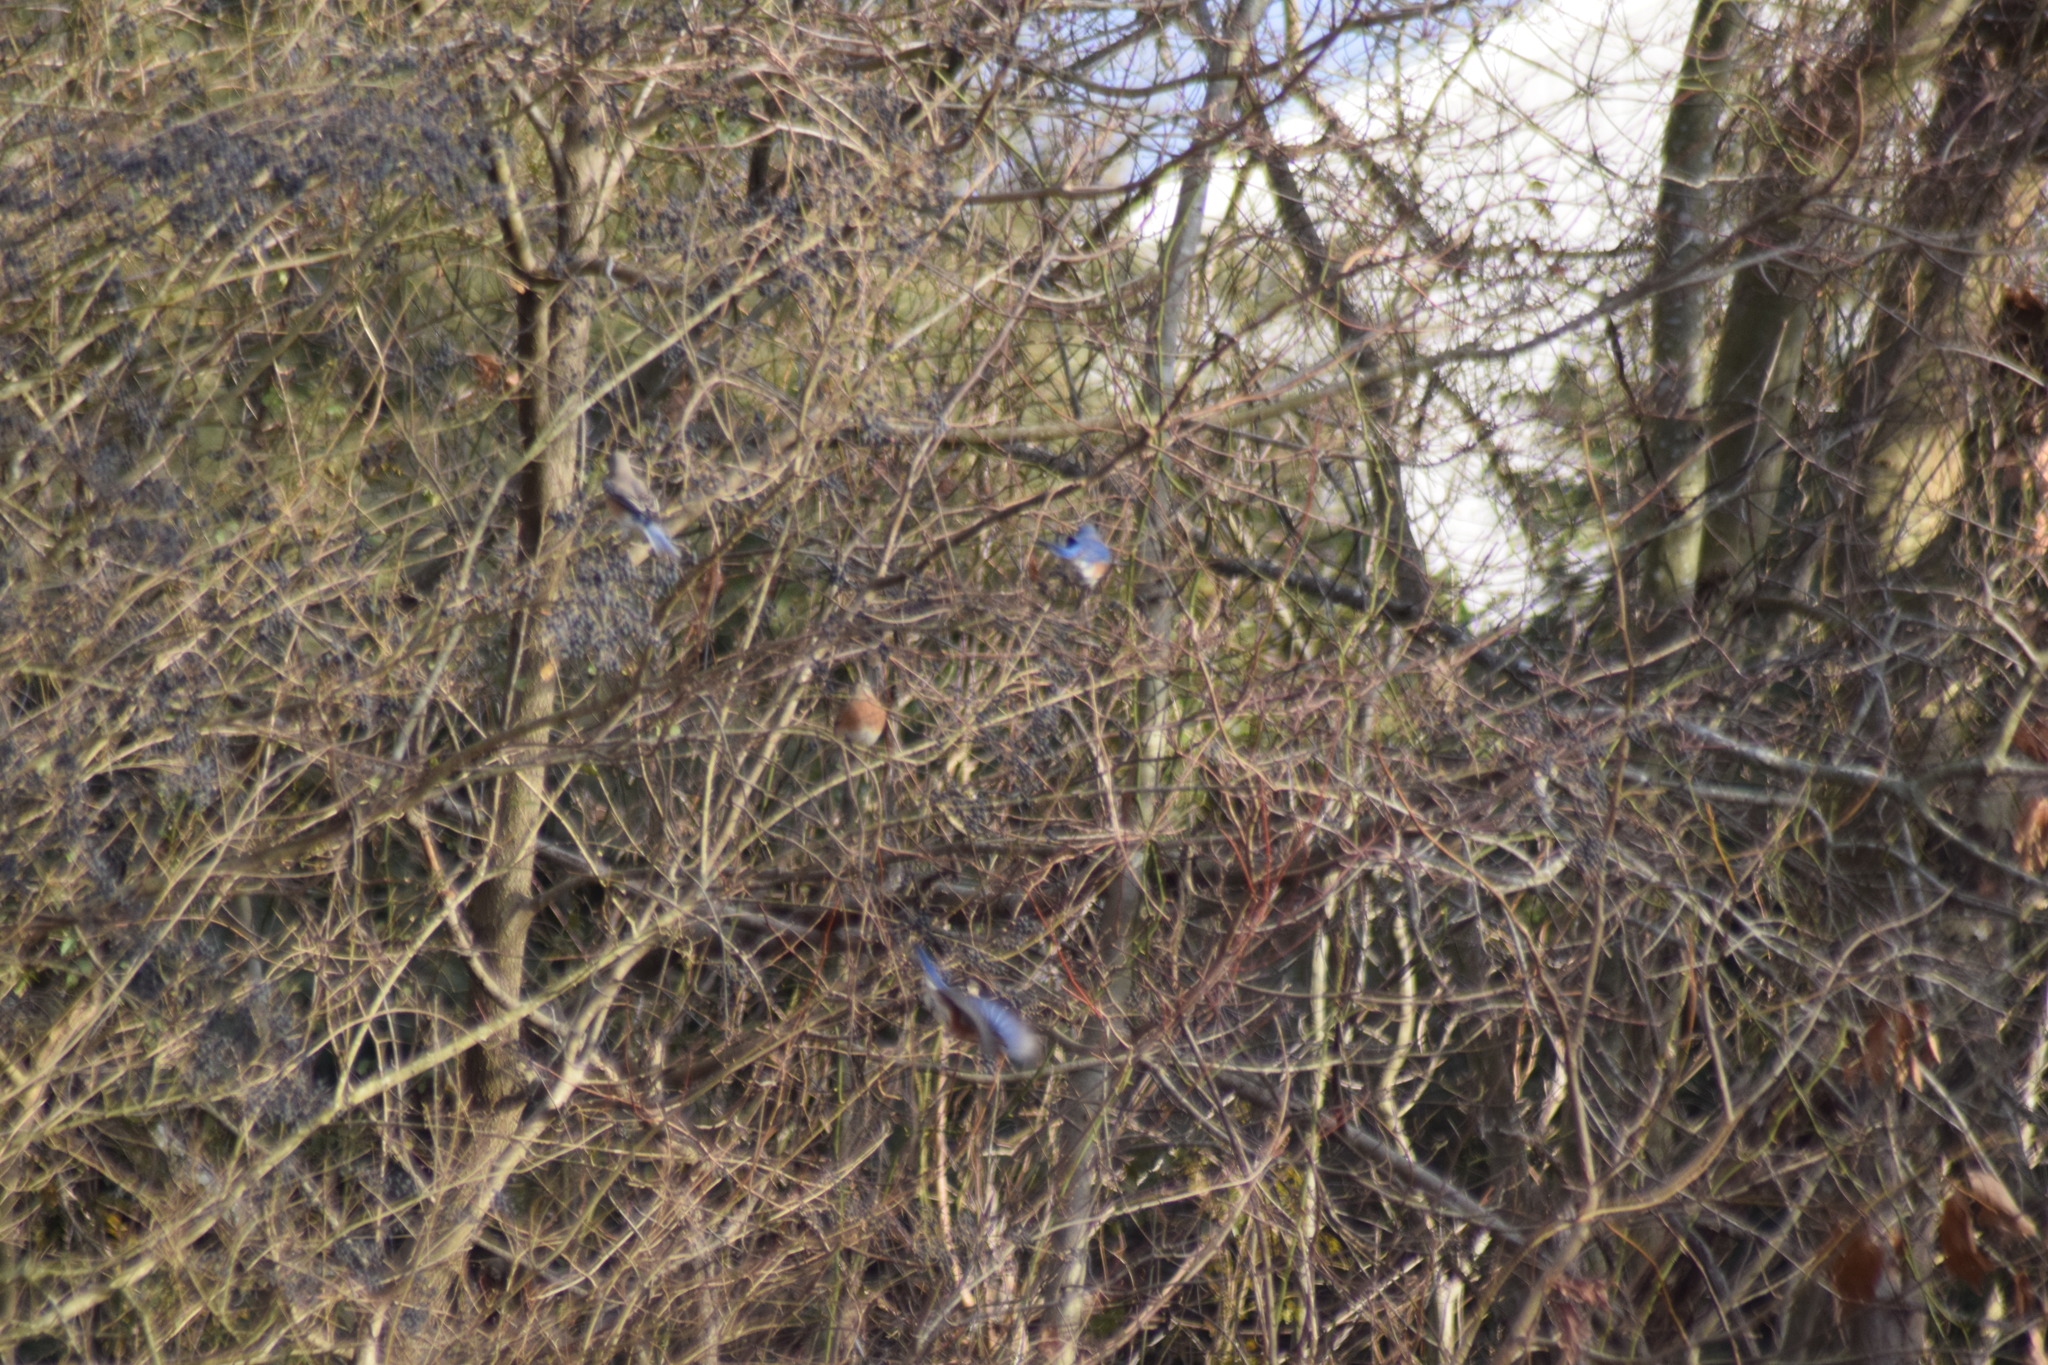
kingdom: Animalia
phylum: Chordata
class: Aves
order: Passeriformes
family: Turdidae
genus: Sialia
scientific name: Sialia sialis
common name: Eastern bluebird
